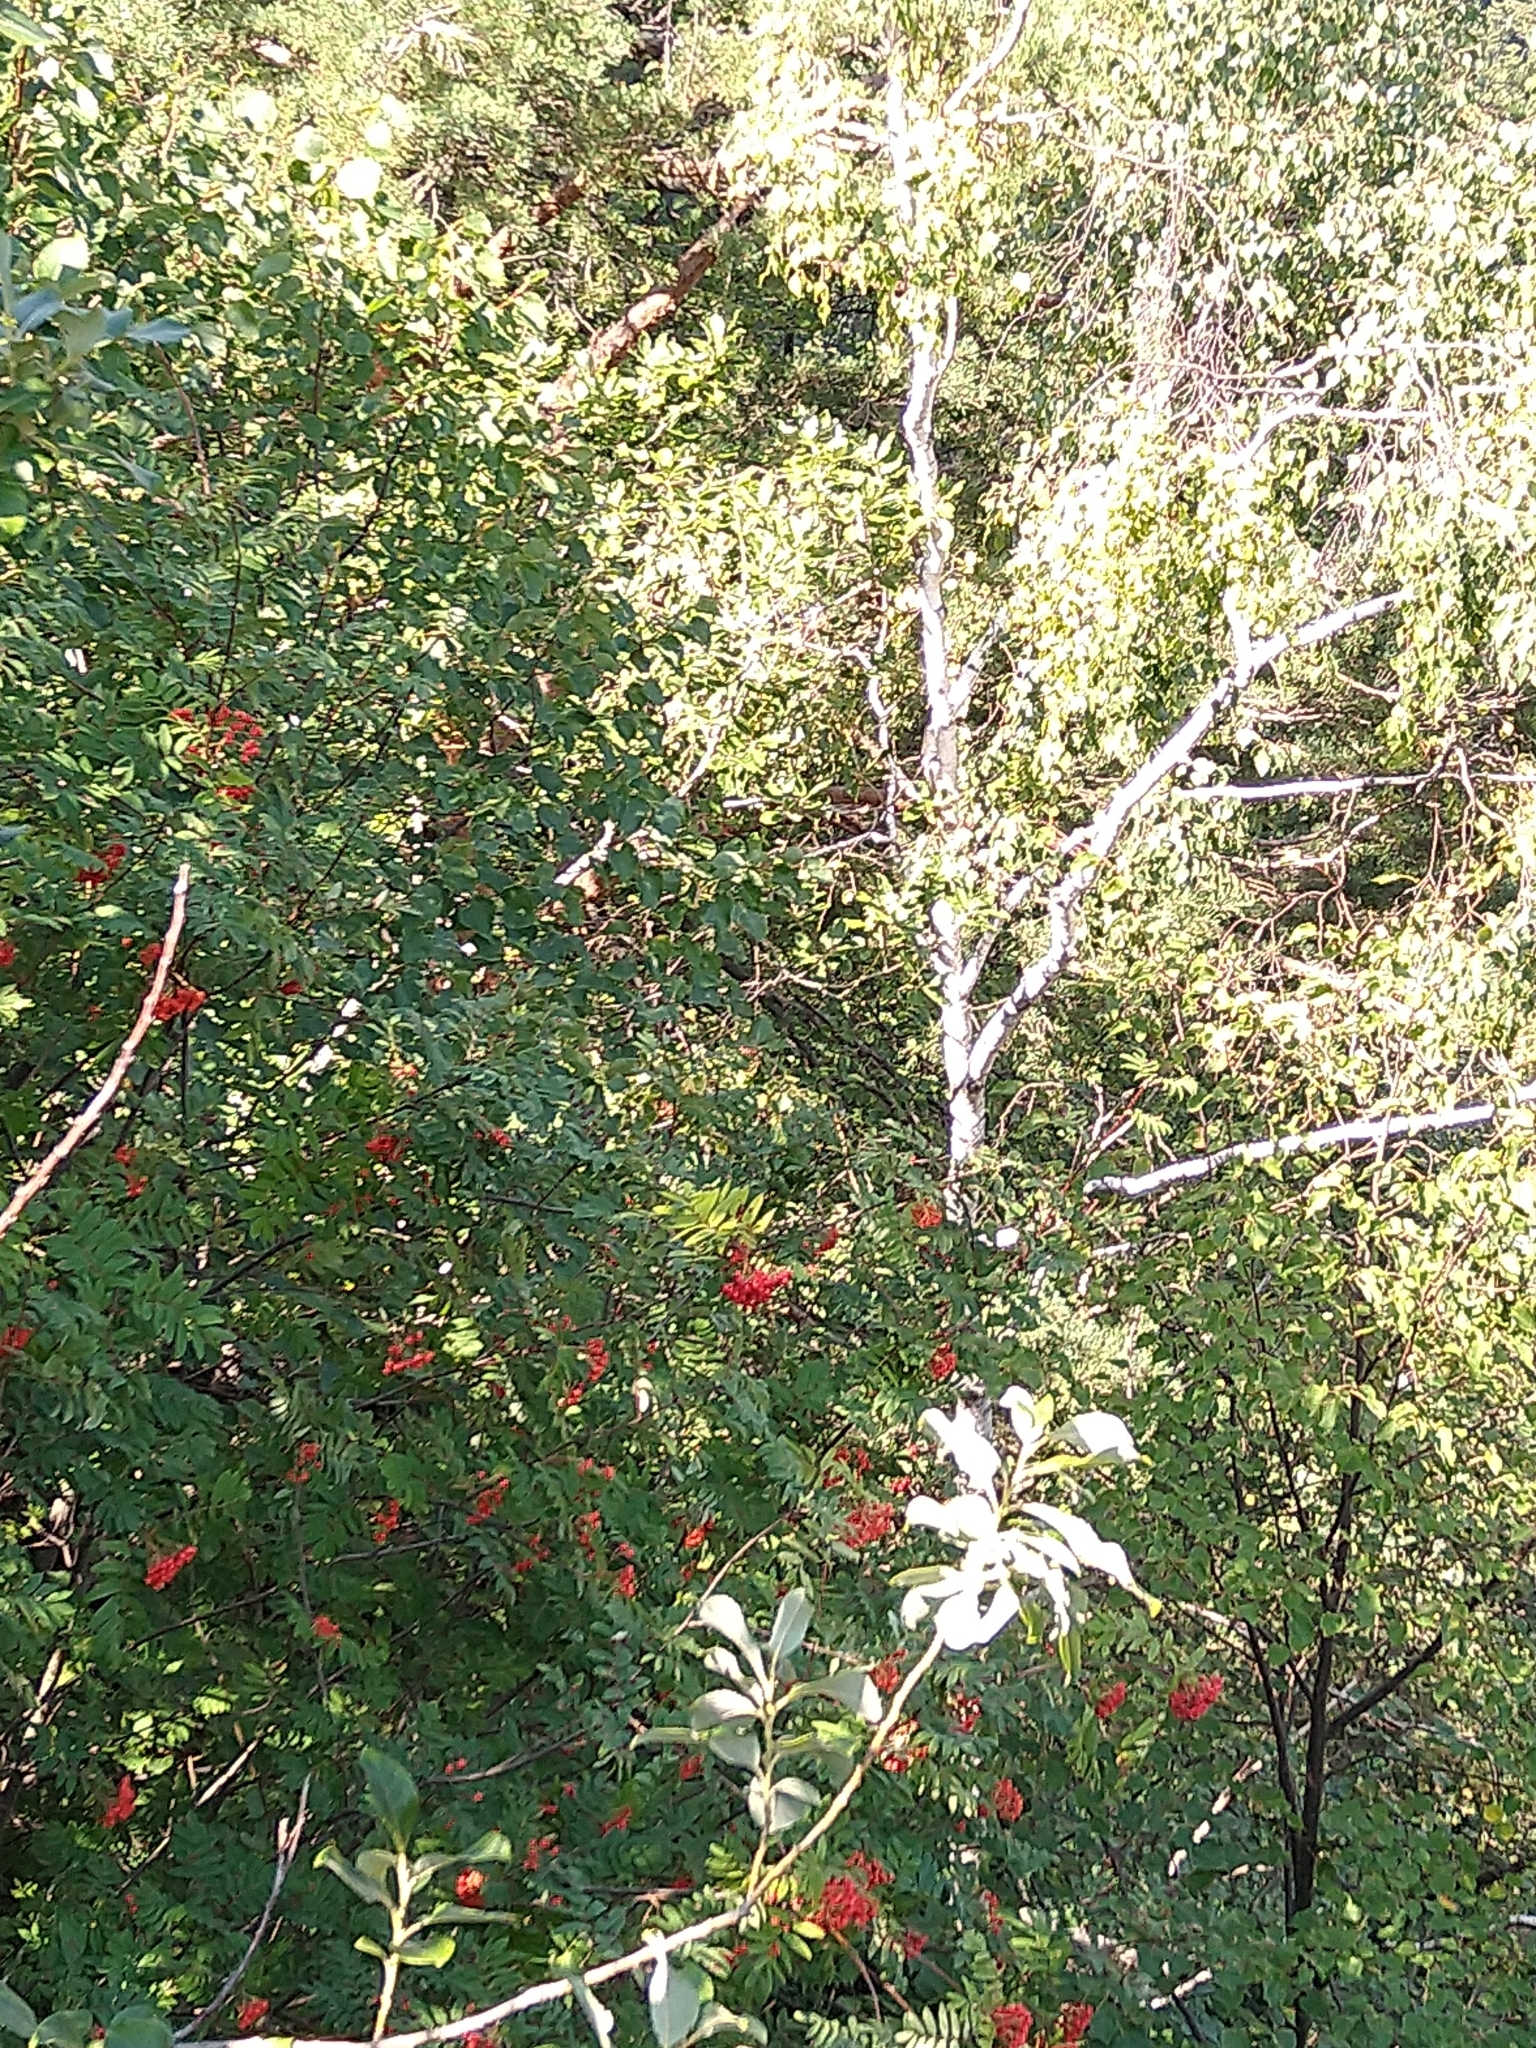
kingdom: Plantae
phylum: Tracheophyta
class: Magnoliopsida
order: Rosales
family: Rosaceae
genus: Sorbus
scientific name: Sorbus aucuparia
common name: Rowan
